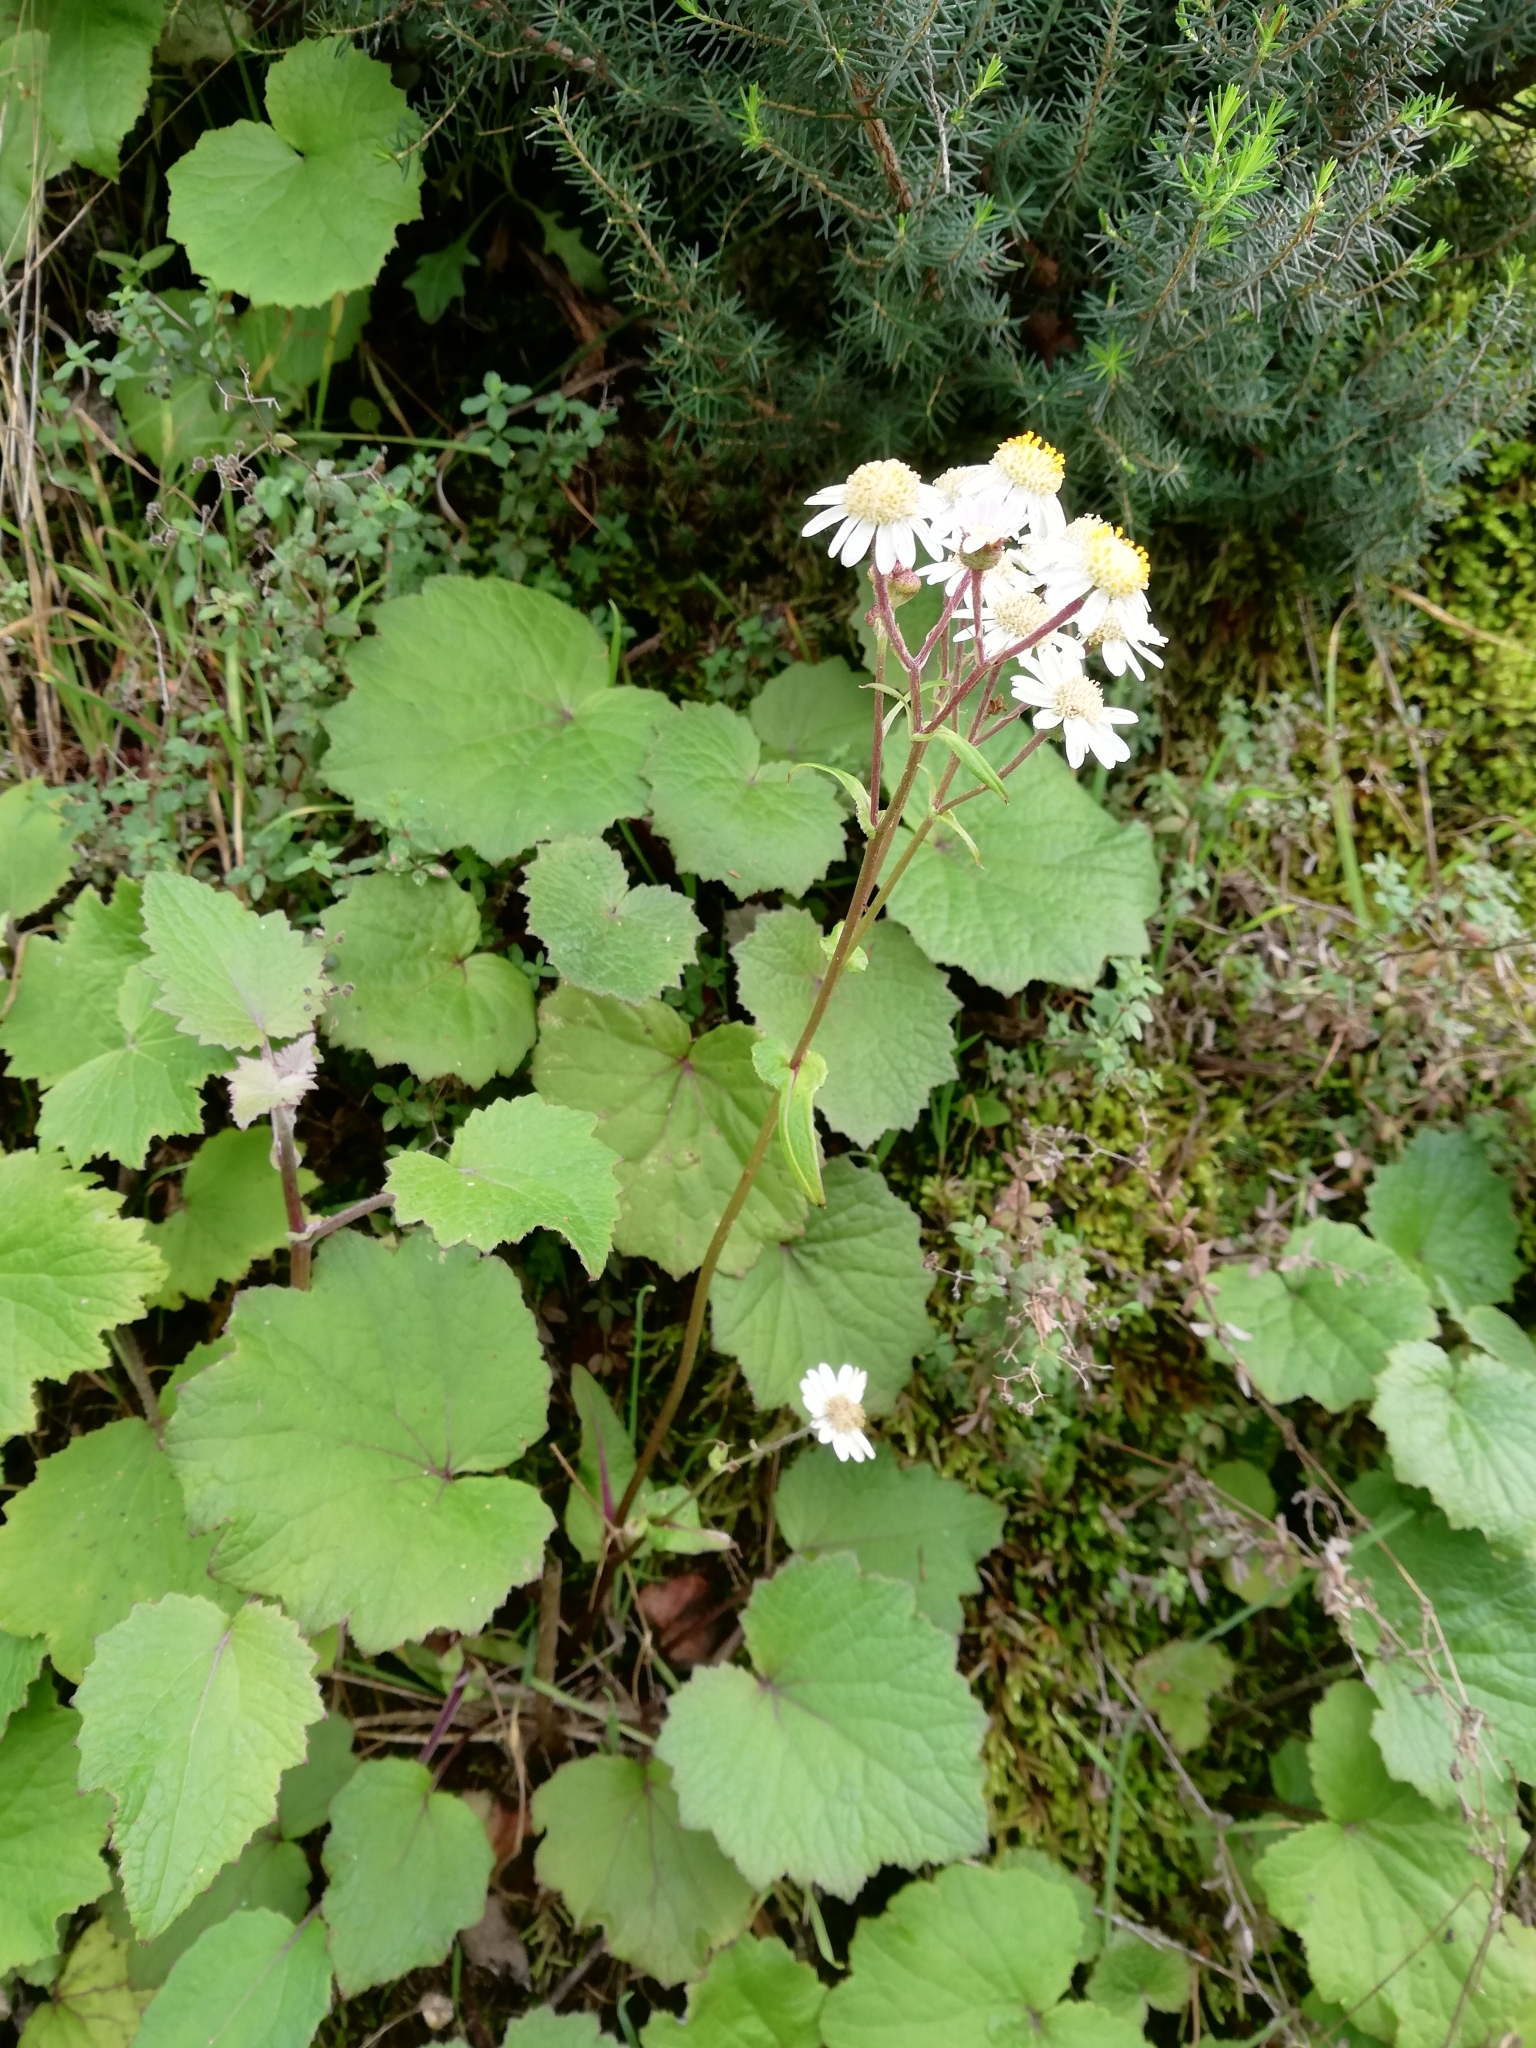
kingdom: Plantae
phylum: Tracheophyta
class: Magnoliopsida
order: Asterales
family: Asteraceae
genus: Pericallis
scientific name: Pericallis steetzii
